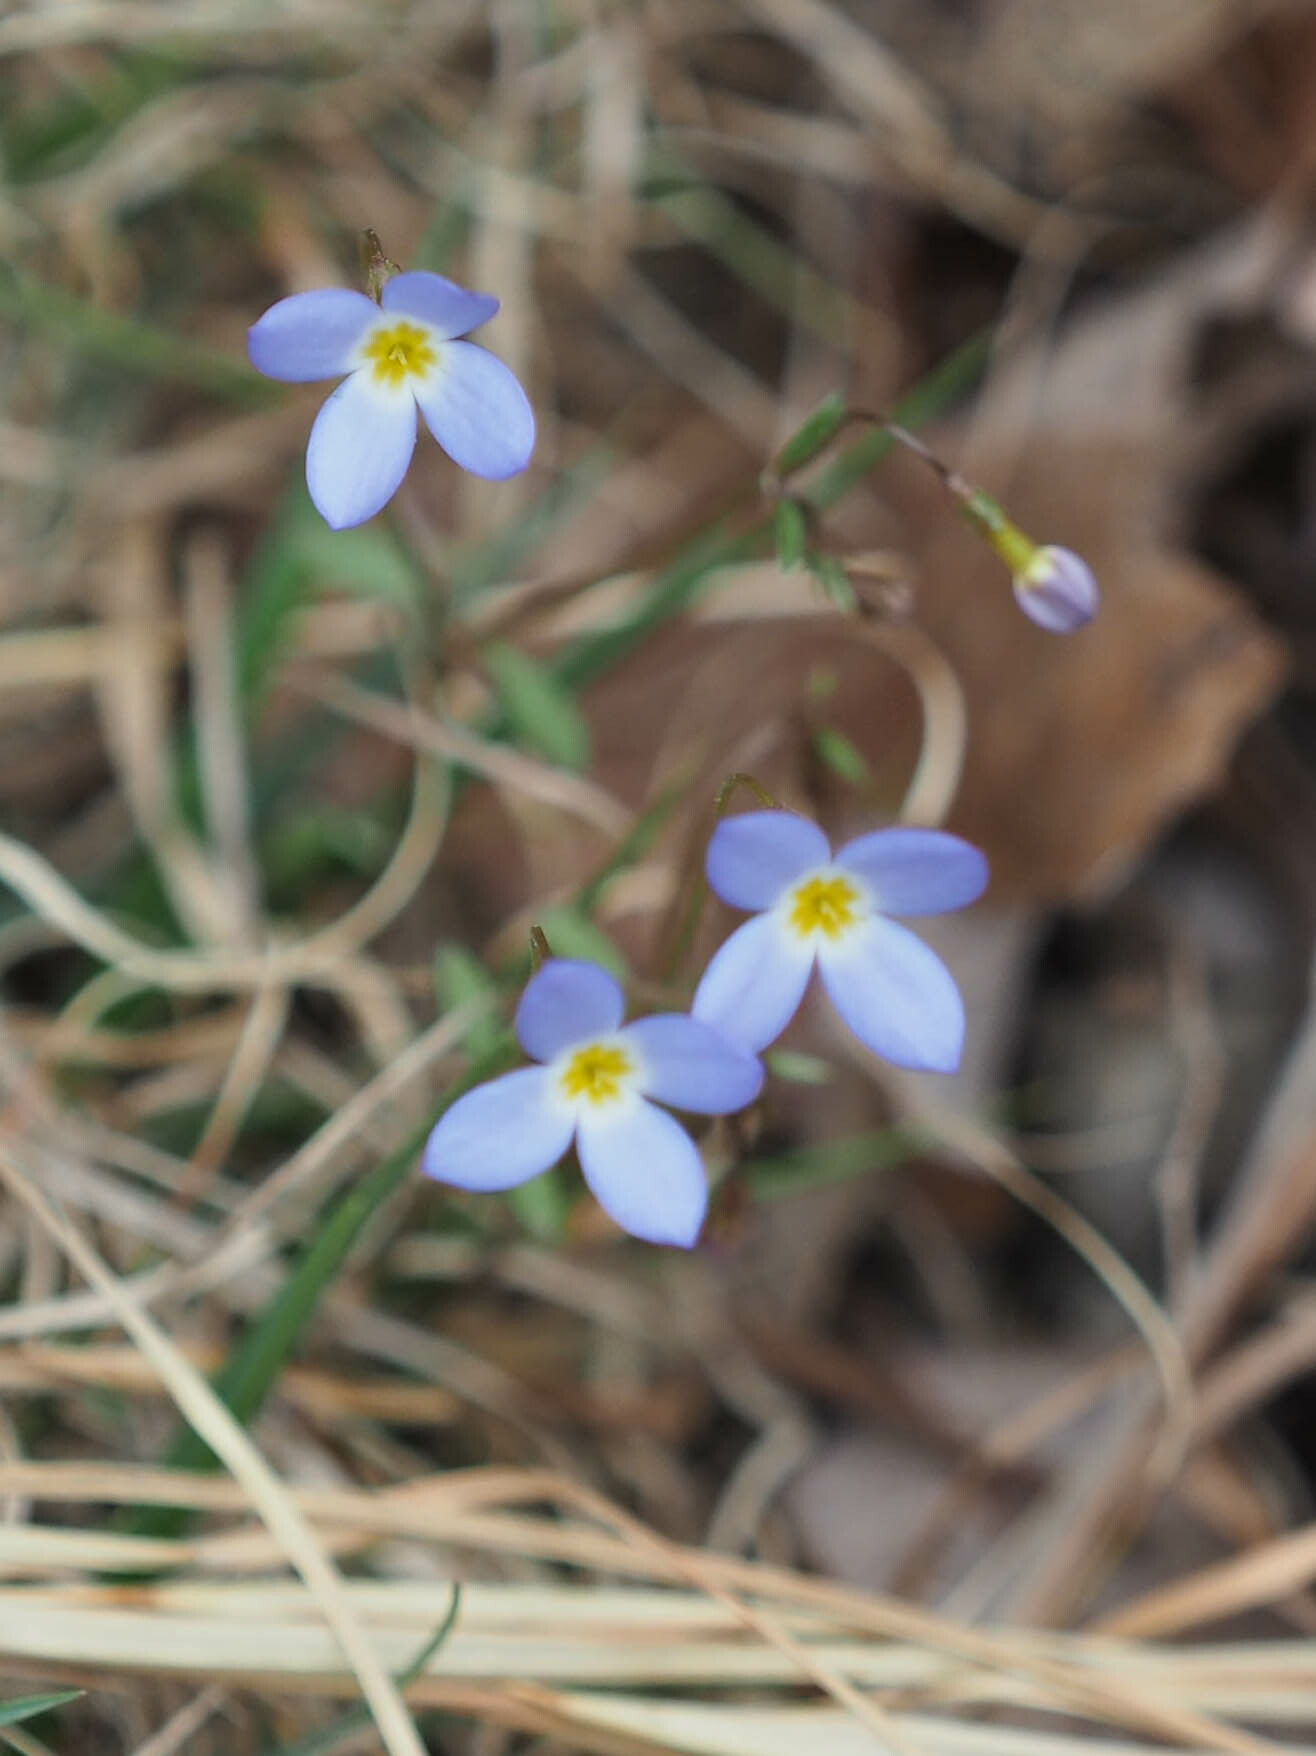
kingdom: Plantae
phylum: Tracheophyta
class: Magnoliopsida
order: Gentianales
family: Rubiaceae
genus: Houstonia
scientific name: Houstonia caerulea
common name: Bluets
